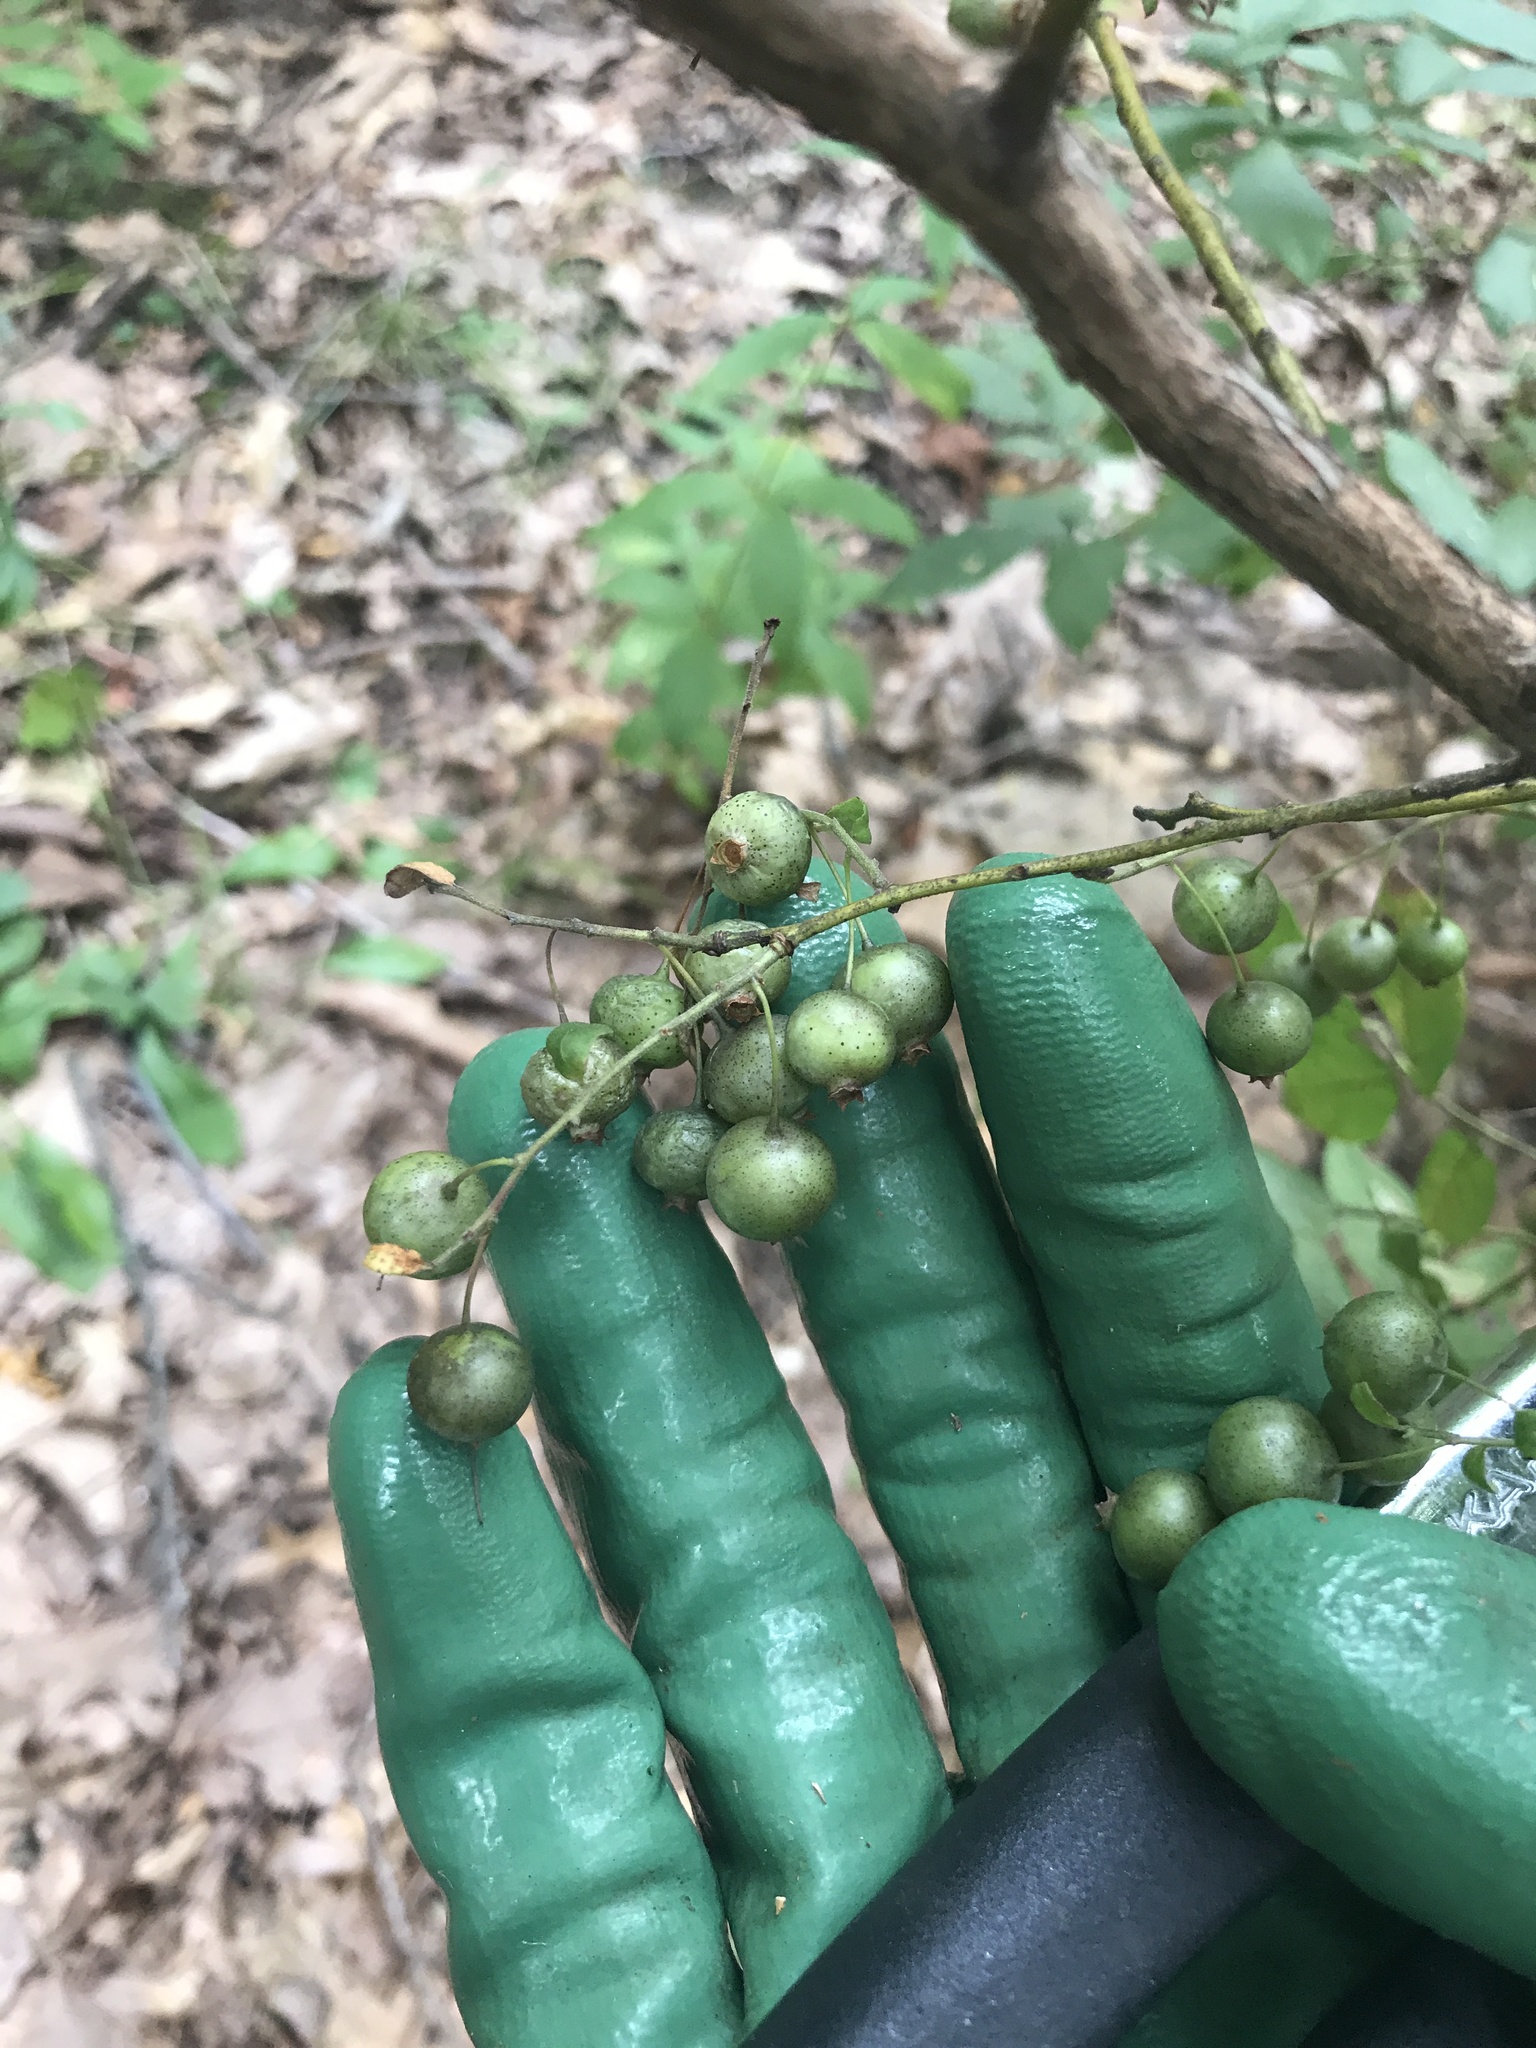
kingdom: Plantae
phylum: Tracheophyta
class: Magnoliopsida
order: Ericales
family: Ericaceae
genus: Vaccinium
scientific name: Vaccinium stamineum
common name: Deerberry
